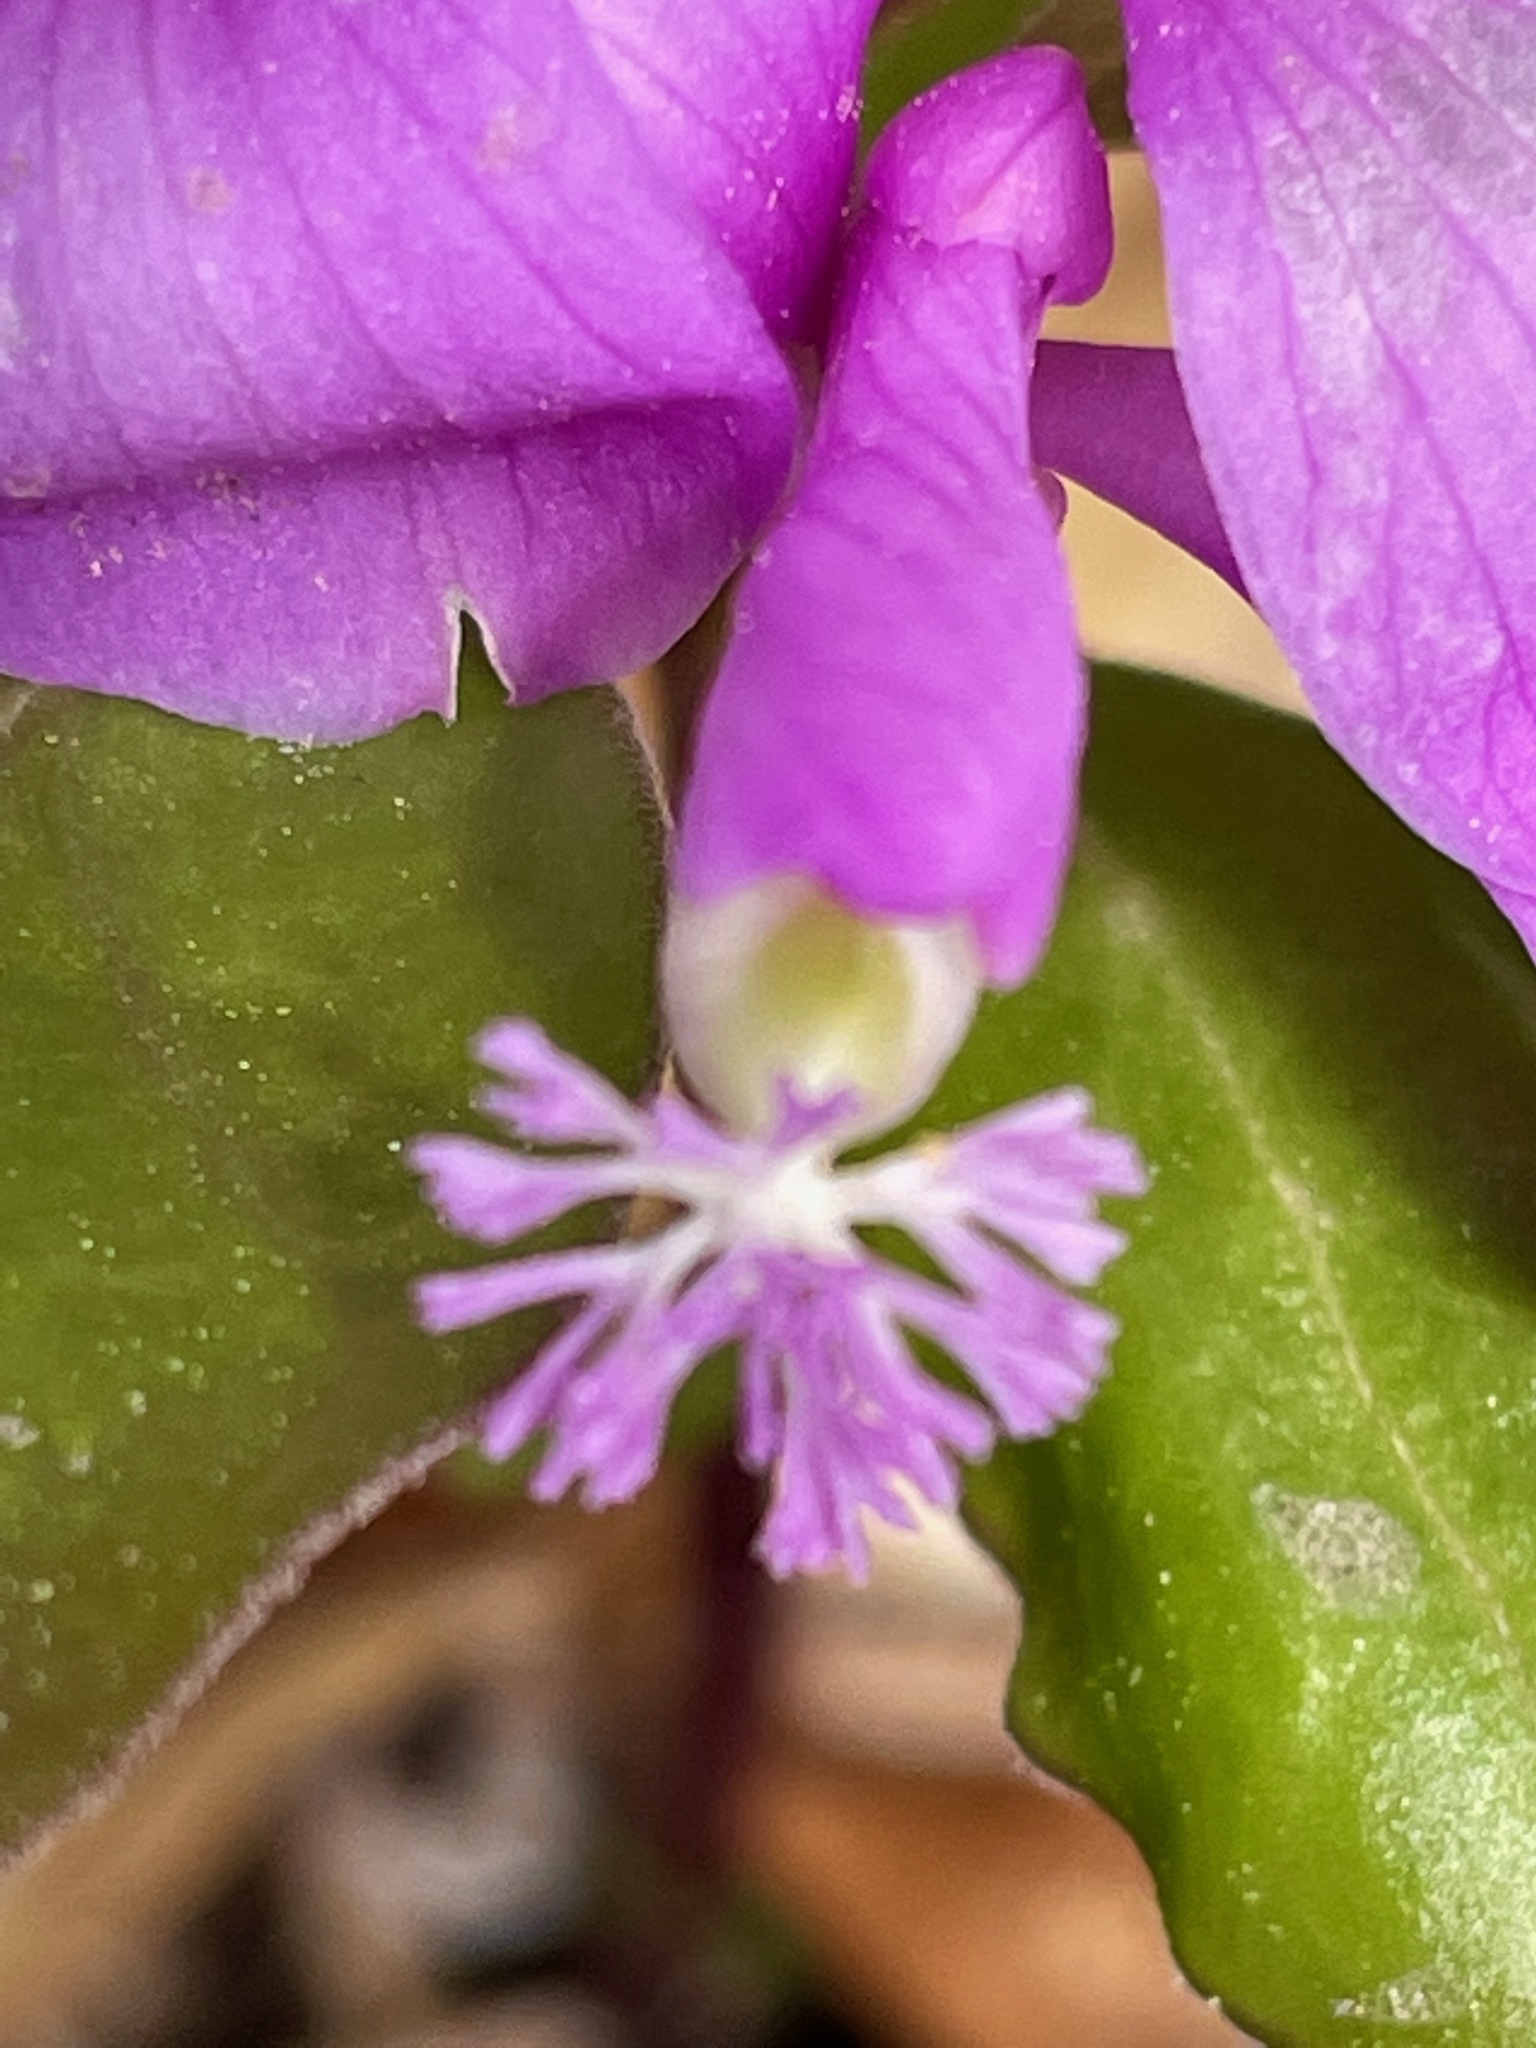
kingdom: Plantae
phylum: Tracheophyta
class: Magnoliopsida
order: Fabales
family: Polygalaceae
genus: Polygaloides
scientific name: Polygaloides paucifolia
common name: Bird-on-the-wing
